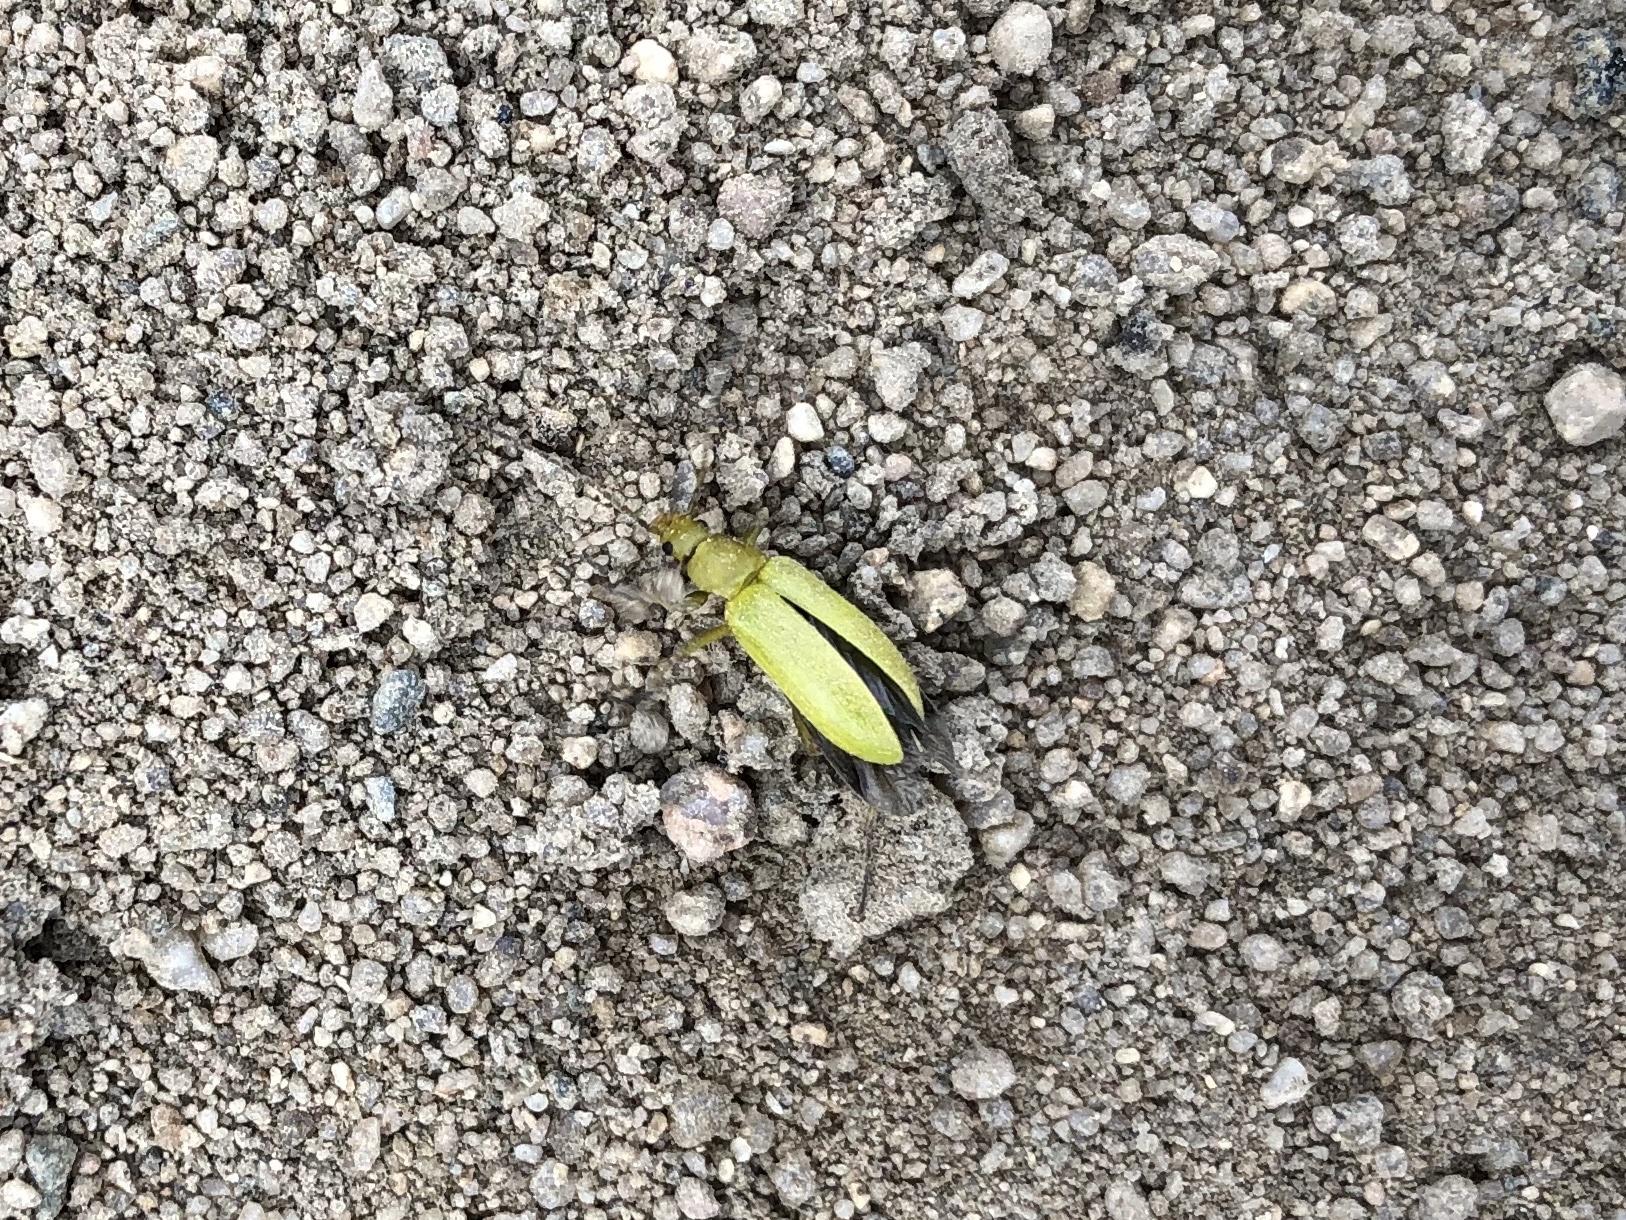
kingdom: Animalia
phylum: Arthropoda
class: Insecta
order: Coleoptera
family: Tenebrionidae
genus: Cteniopus
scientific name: Cteniopus sulphureus
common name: Sulphur beetle
